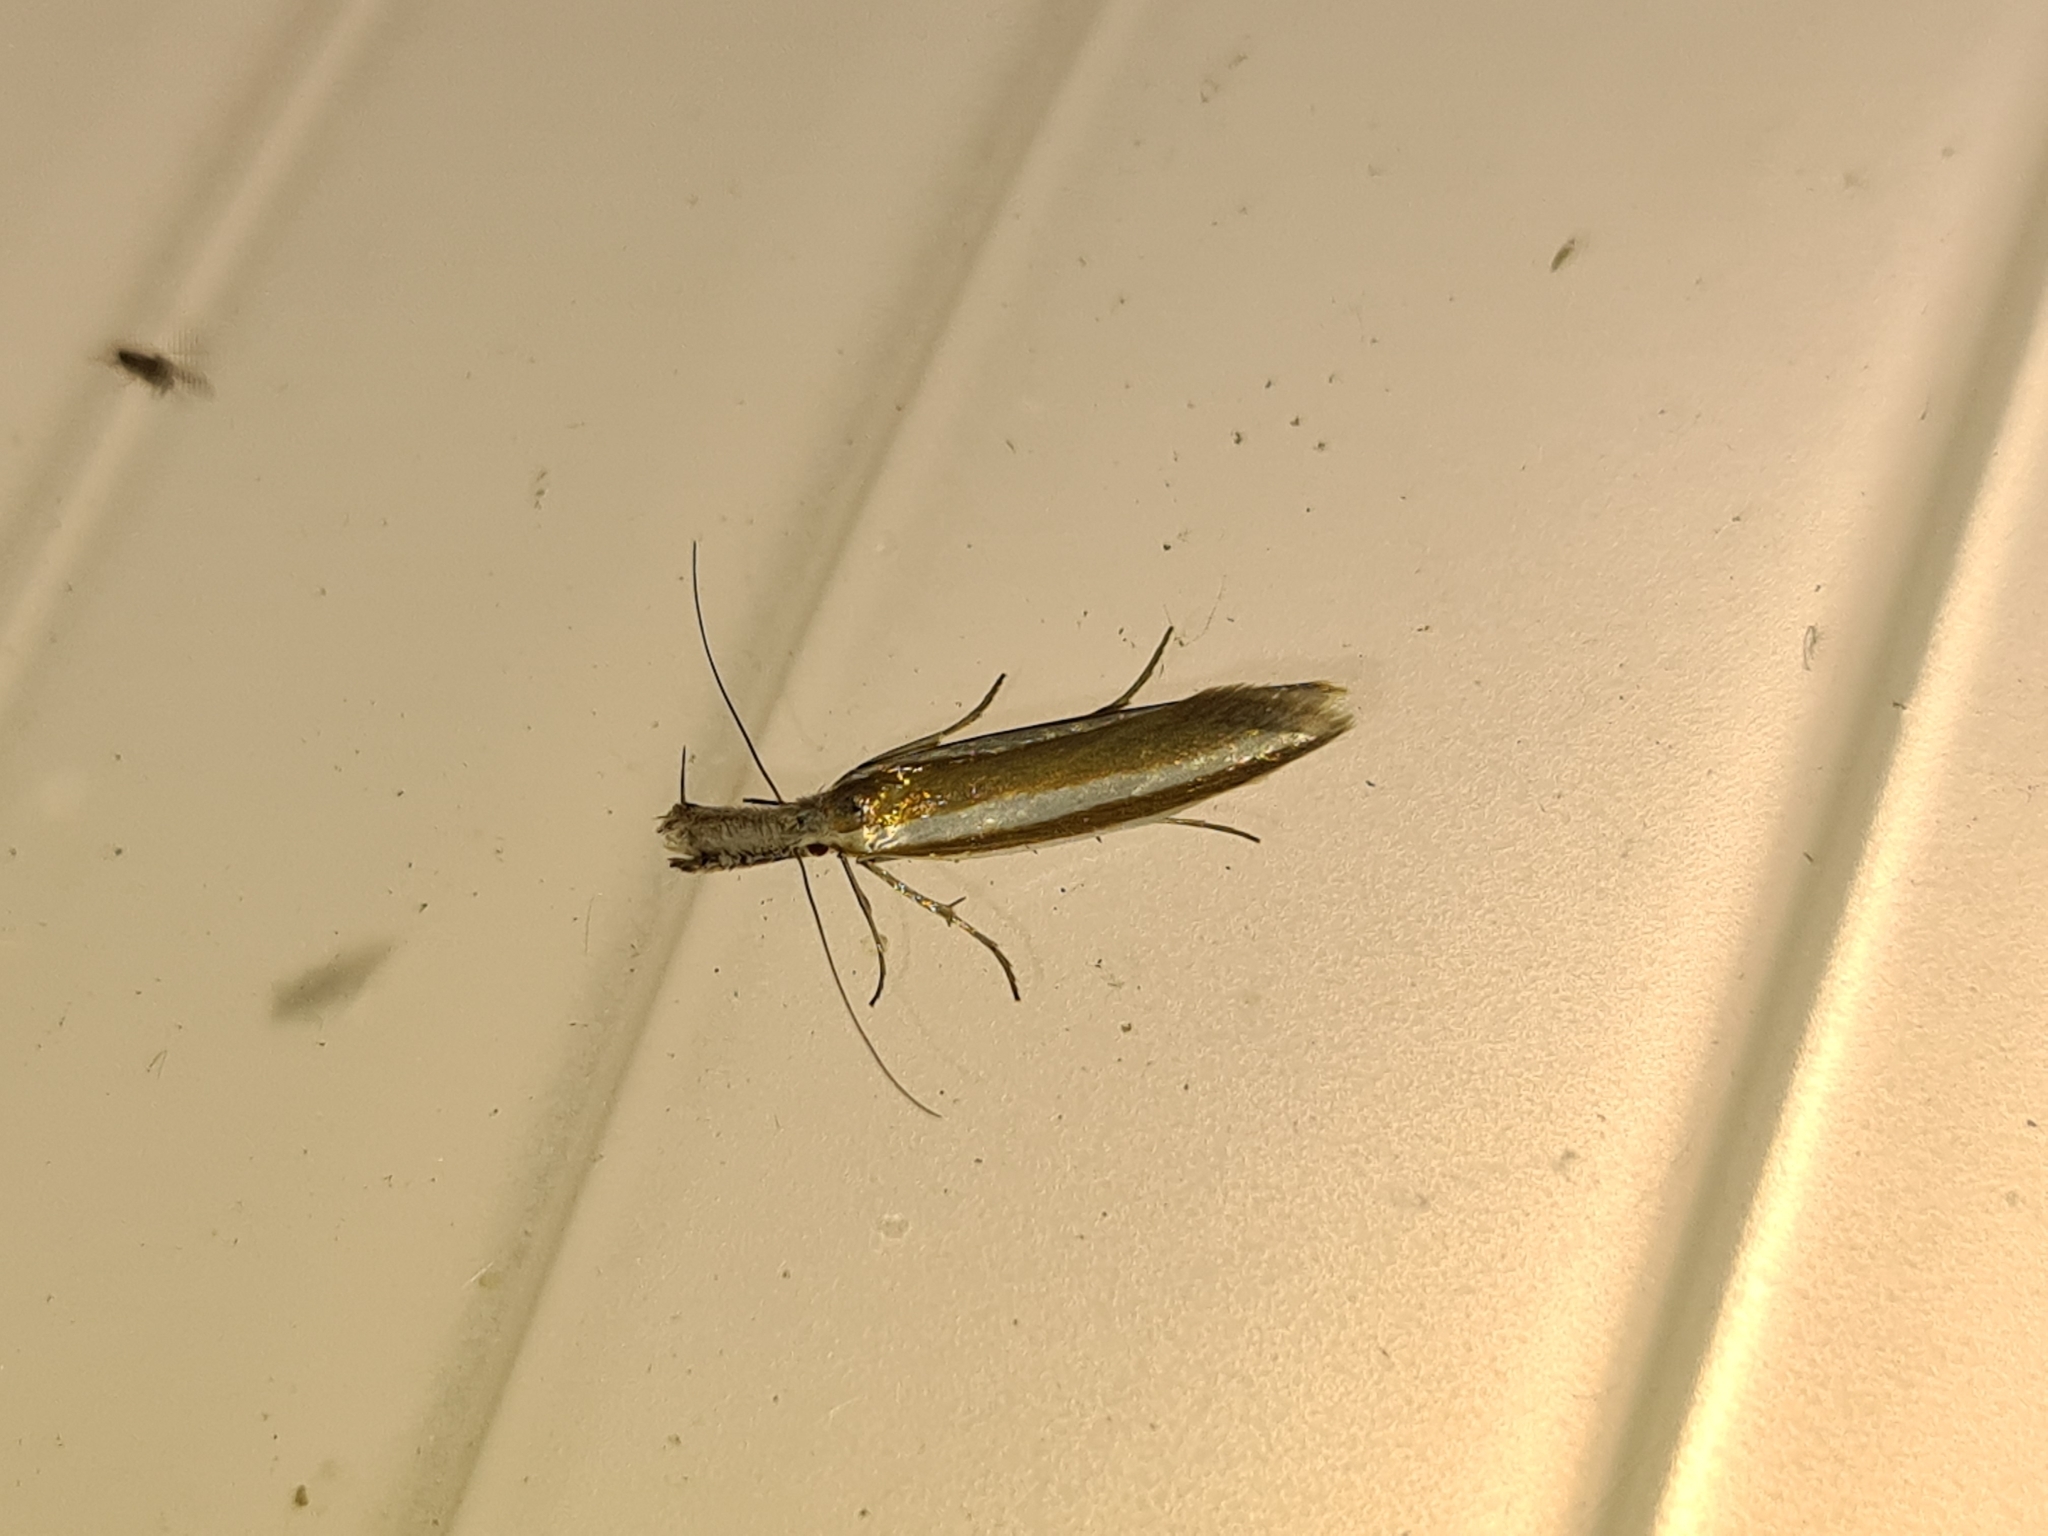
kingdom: Animalia
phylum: Arthropoda
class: Insecta
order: Lepidoptera
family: Oecophoridae
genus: Pleurota
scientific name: Pleurota aristella
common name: Southern streak
